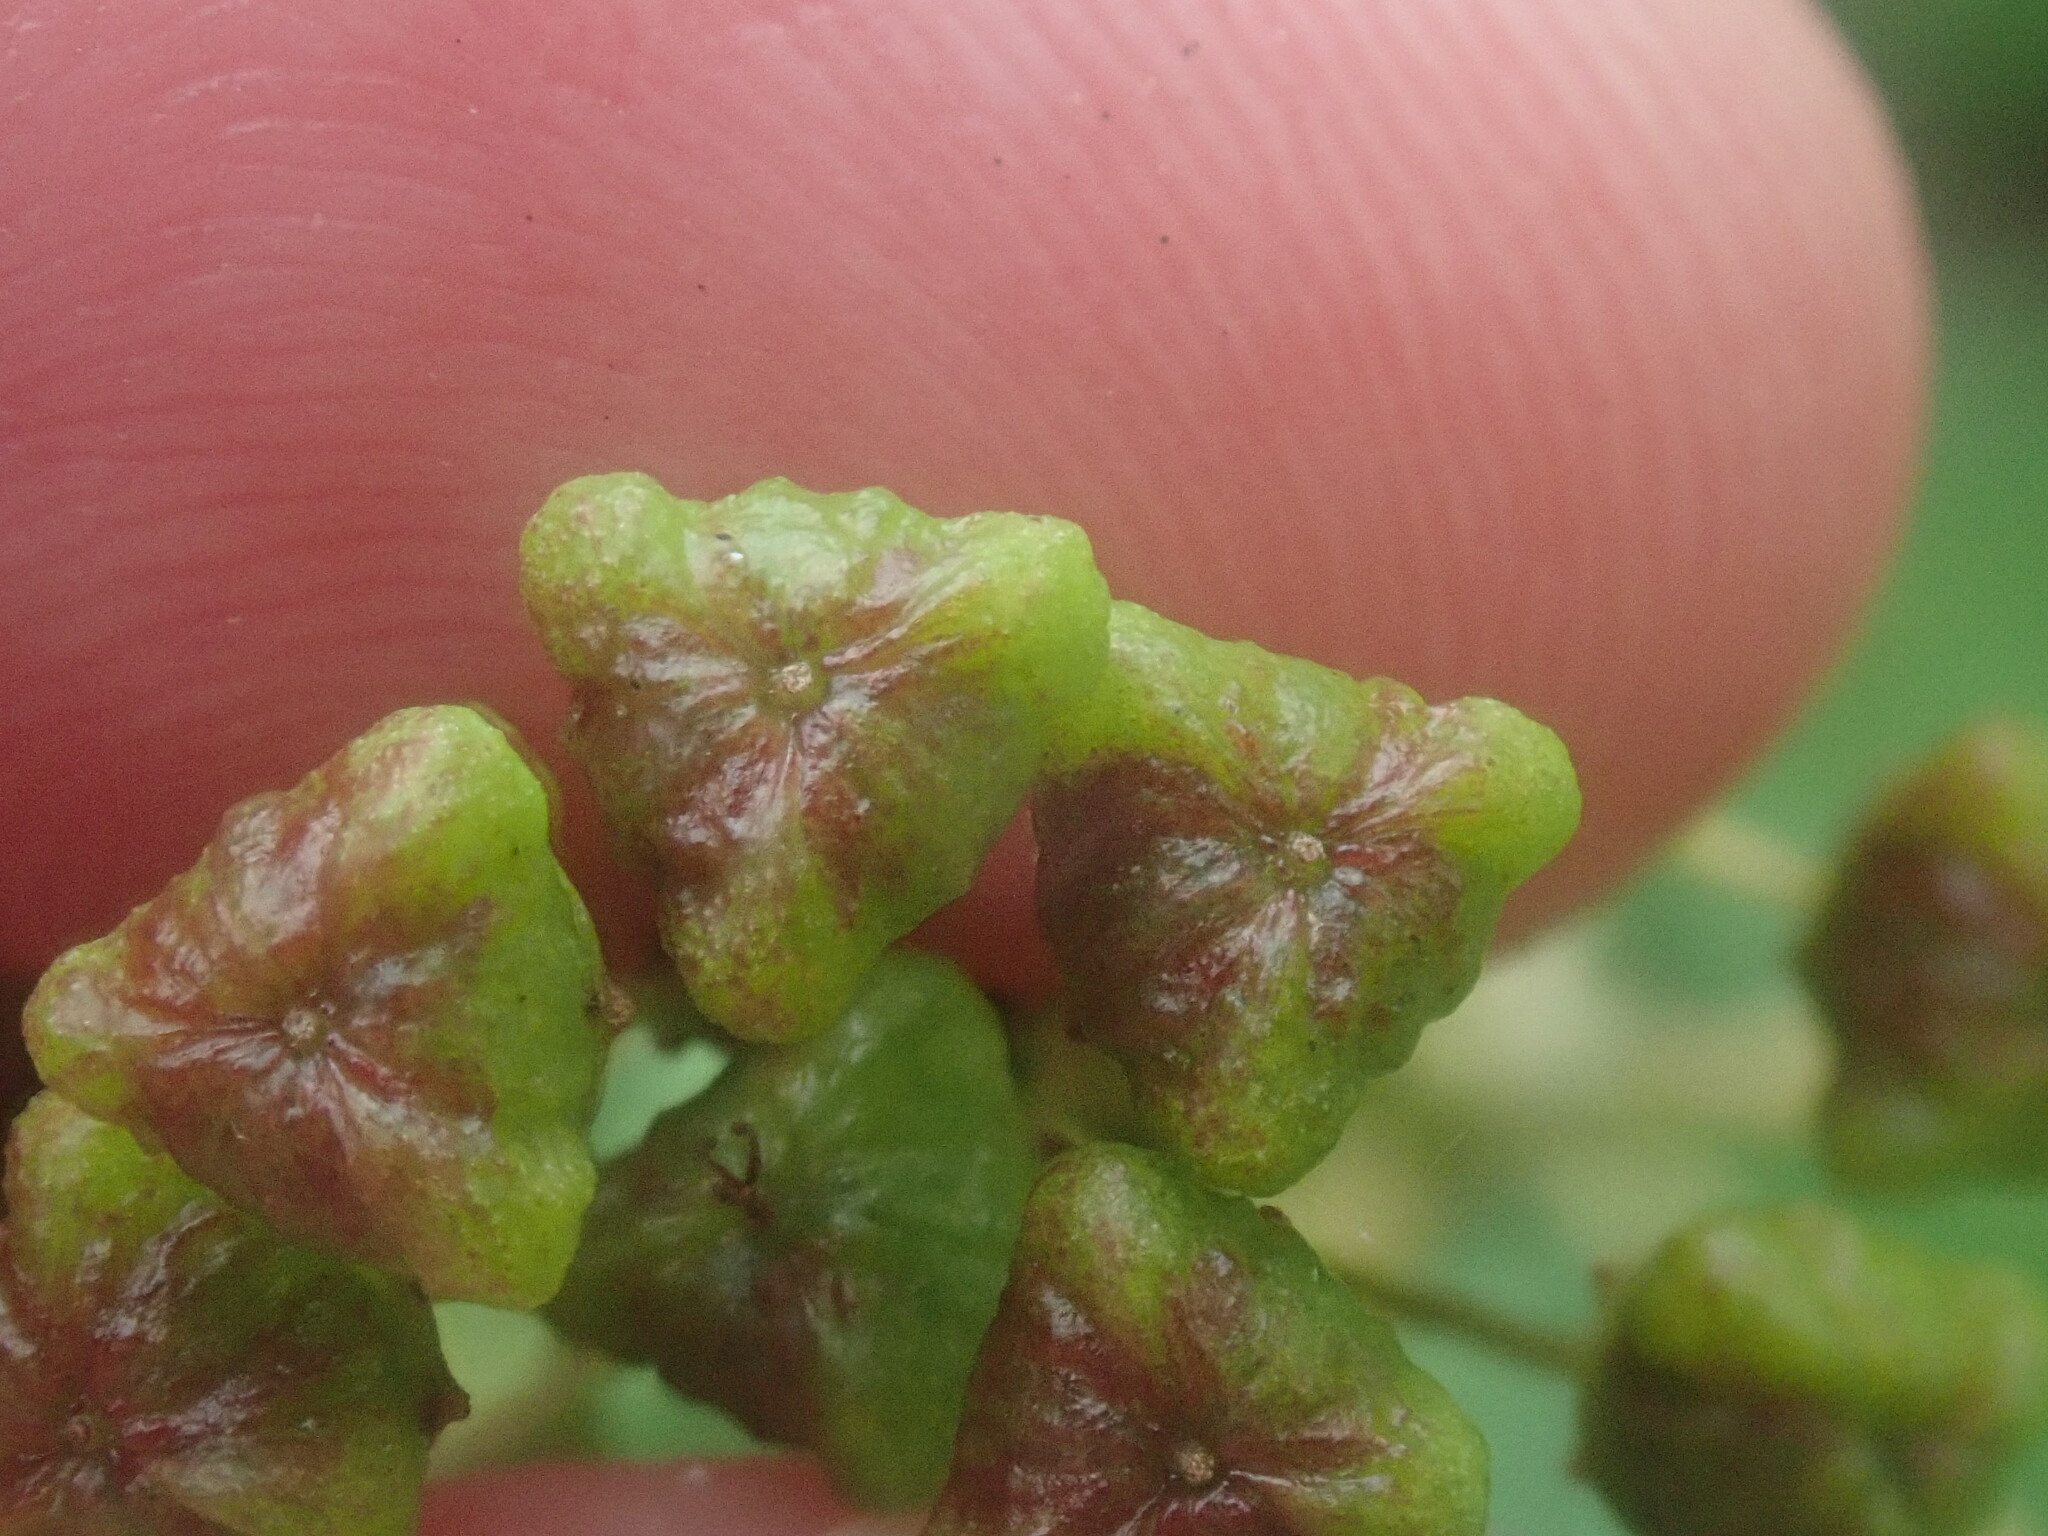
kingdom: Plantae
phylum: Tracheophyta
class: Magnoliopsida
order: Rosales
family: Rhamnaceae
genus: Ceanothus
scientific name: Ceanothus americanus
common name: Redroot
